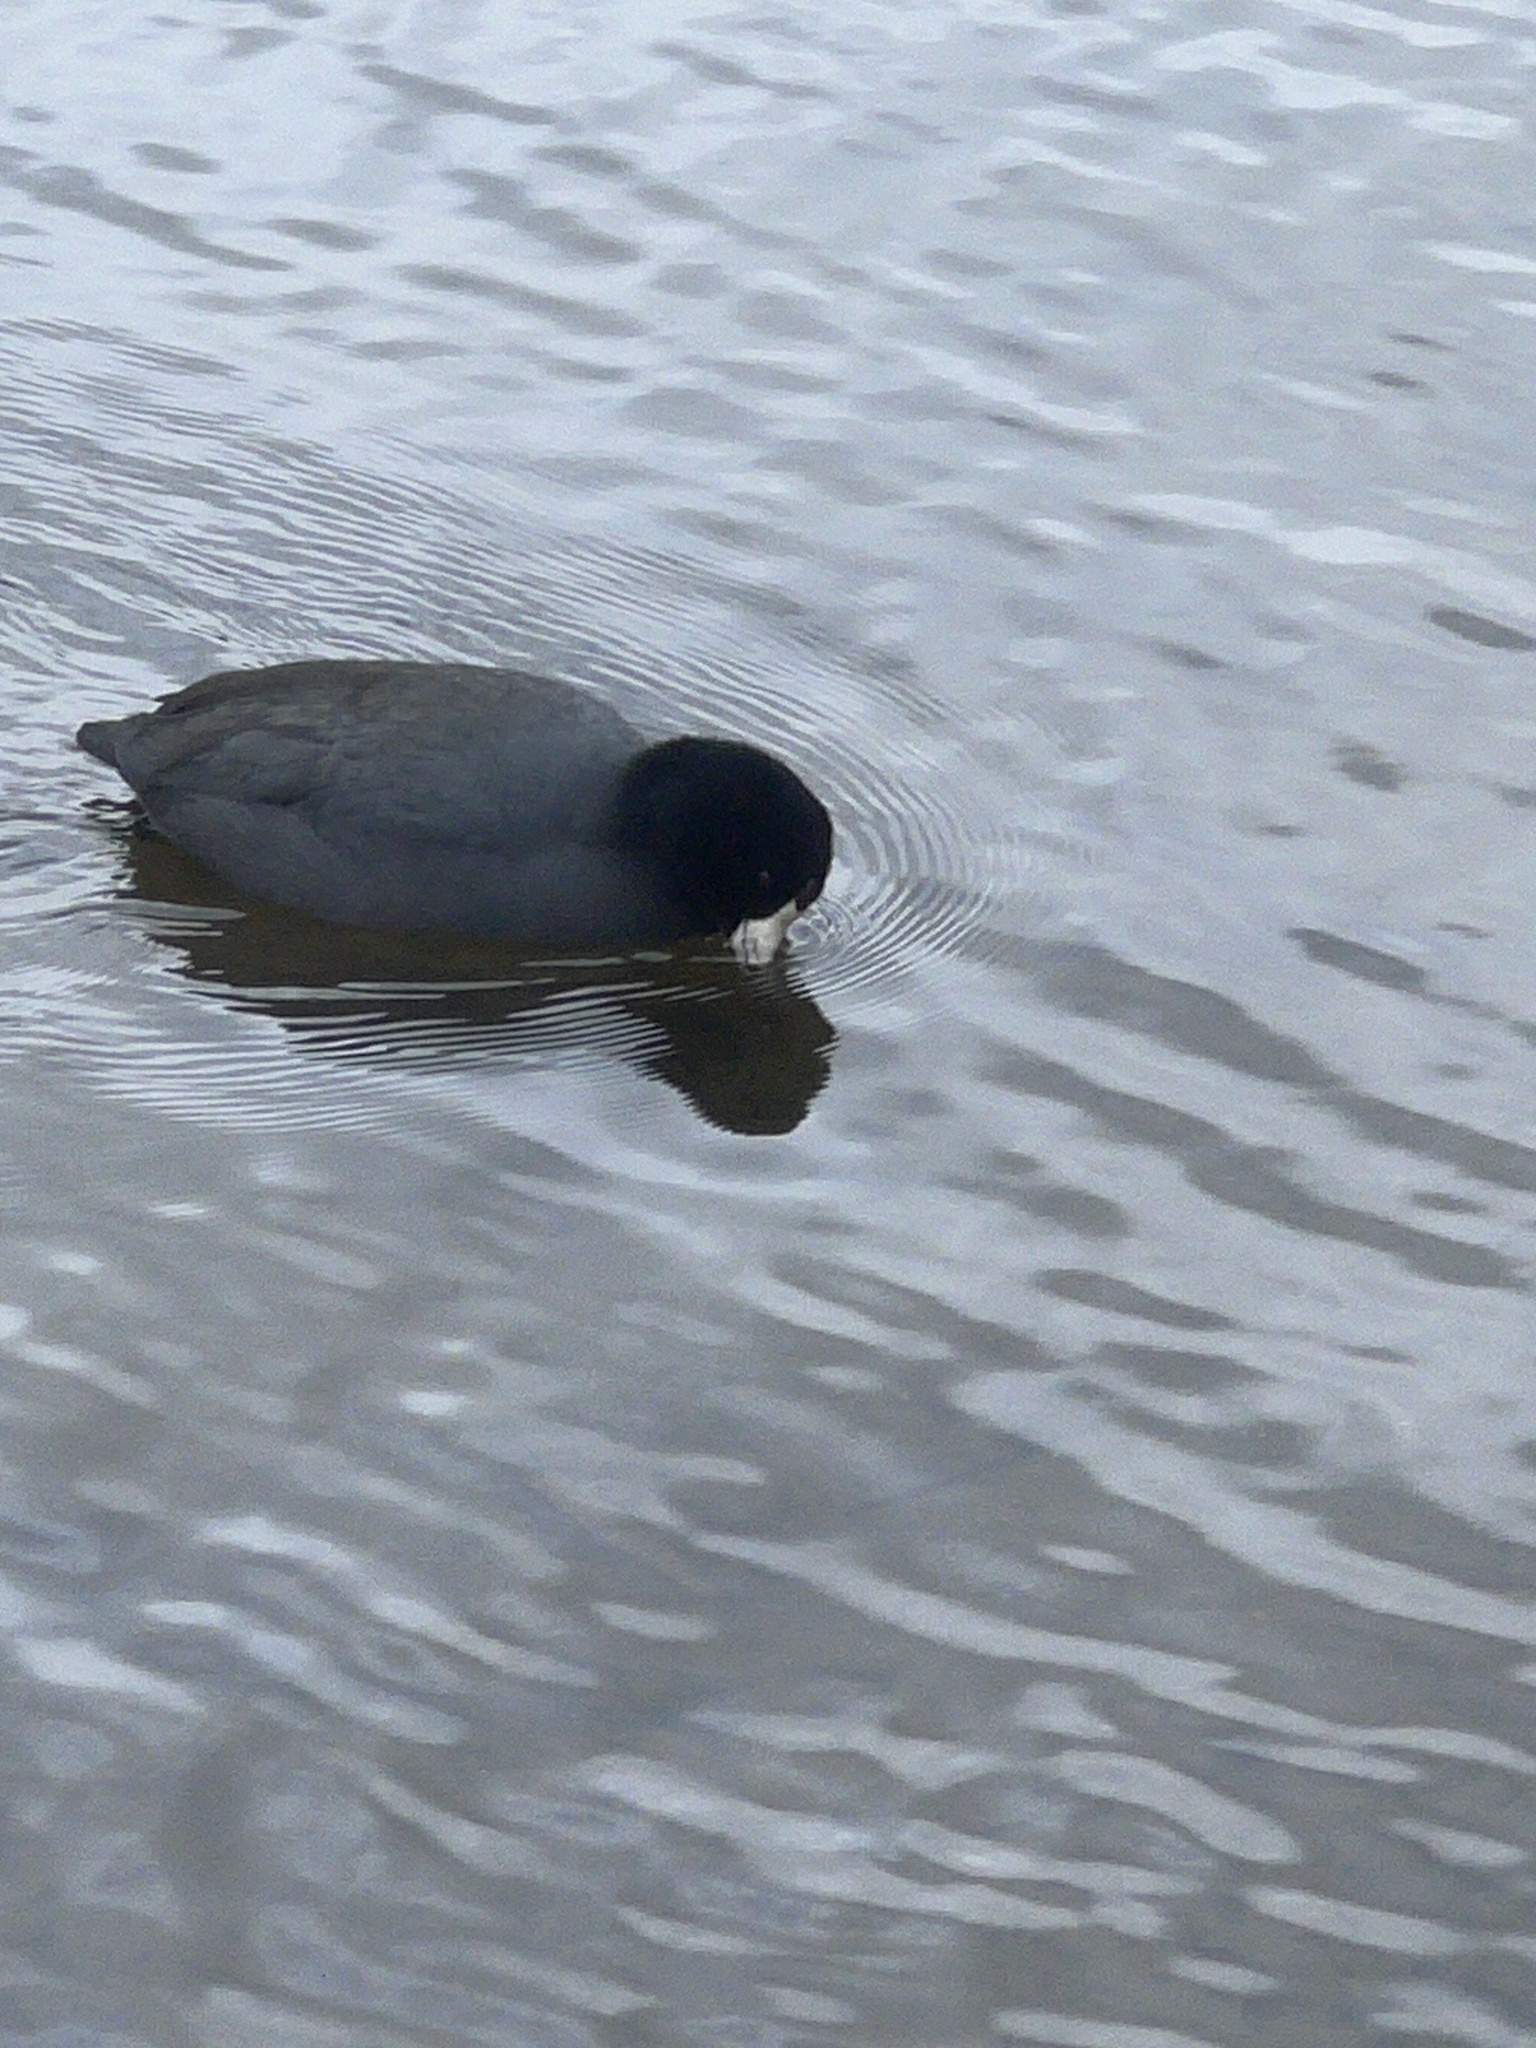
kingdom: Animalia
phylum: Chordata
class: Aves
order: Gruiformes
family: Rallidae
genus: Fulica
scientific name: Fulica americana
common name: American coot
